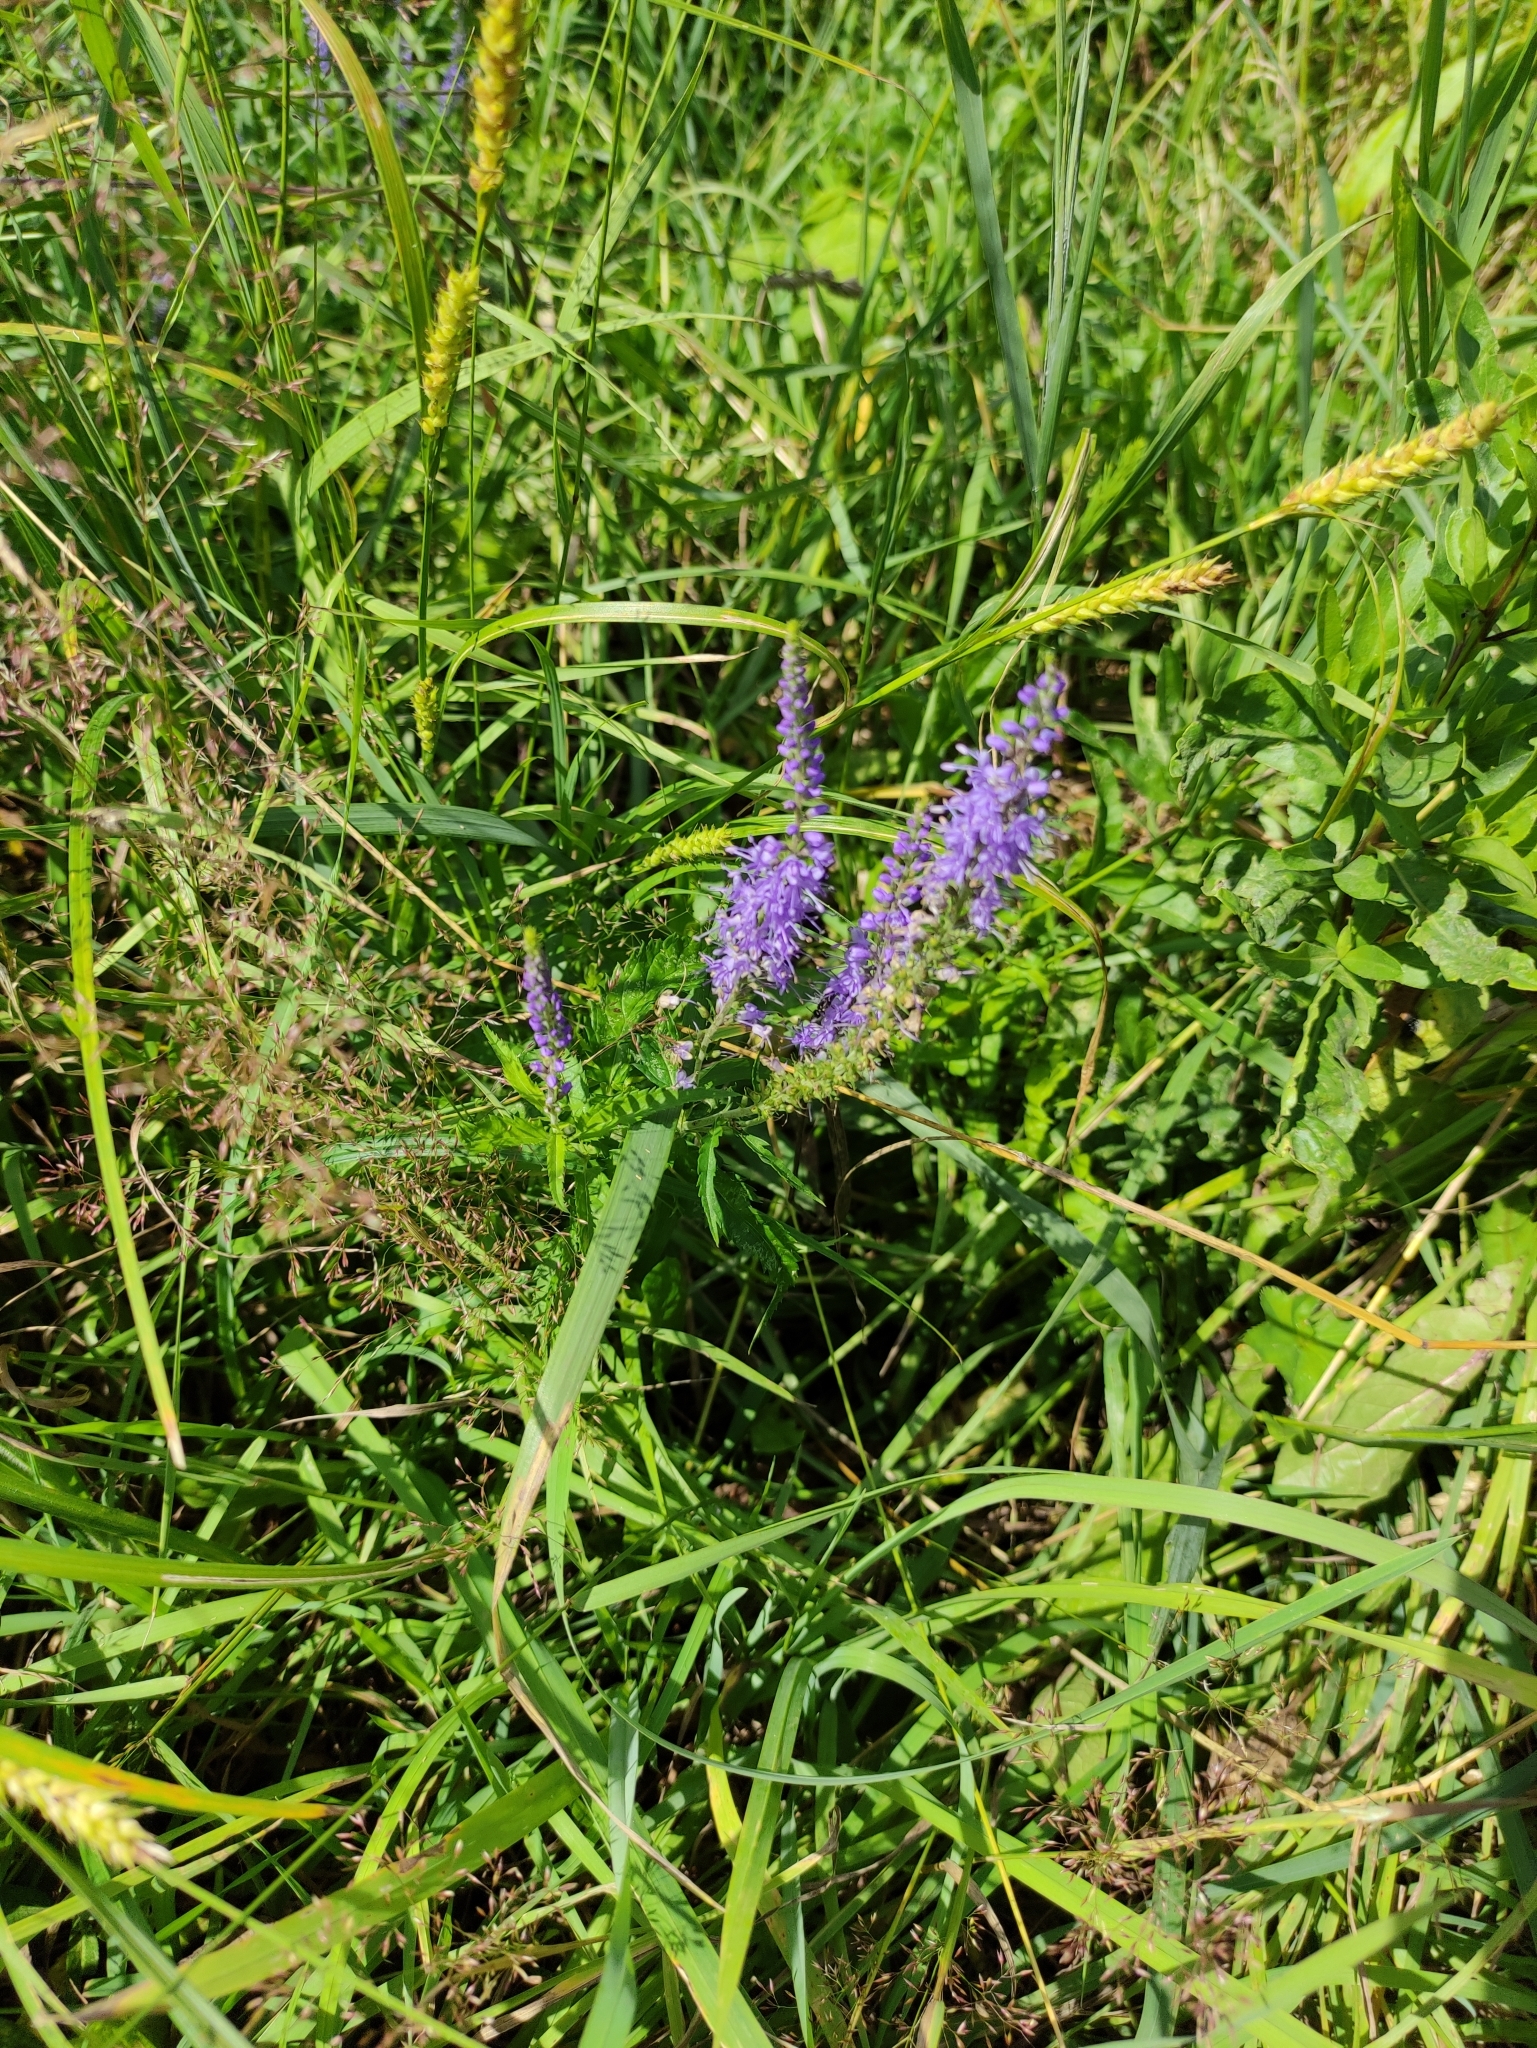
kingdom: Plantae
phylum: Tracheophyta
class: Magnoliopsida
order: Lamiales
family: Plantaginaceae
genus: Veronica
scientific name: Veronica longifolia
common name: Garden speedwell
